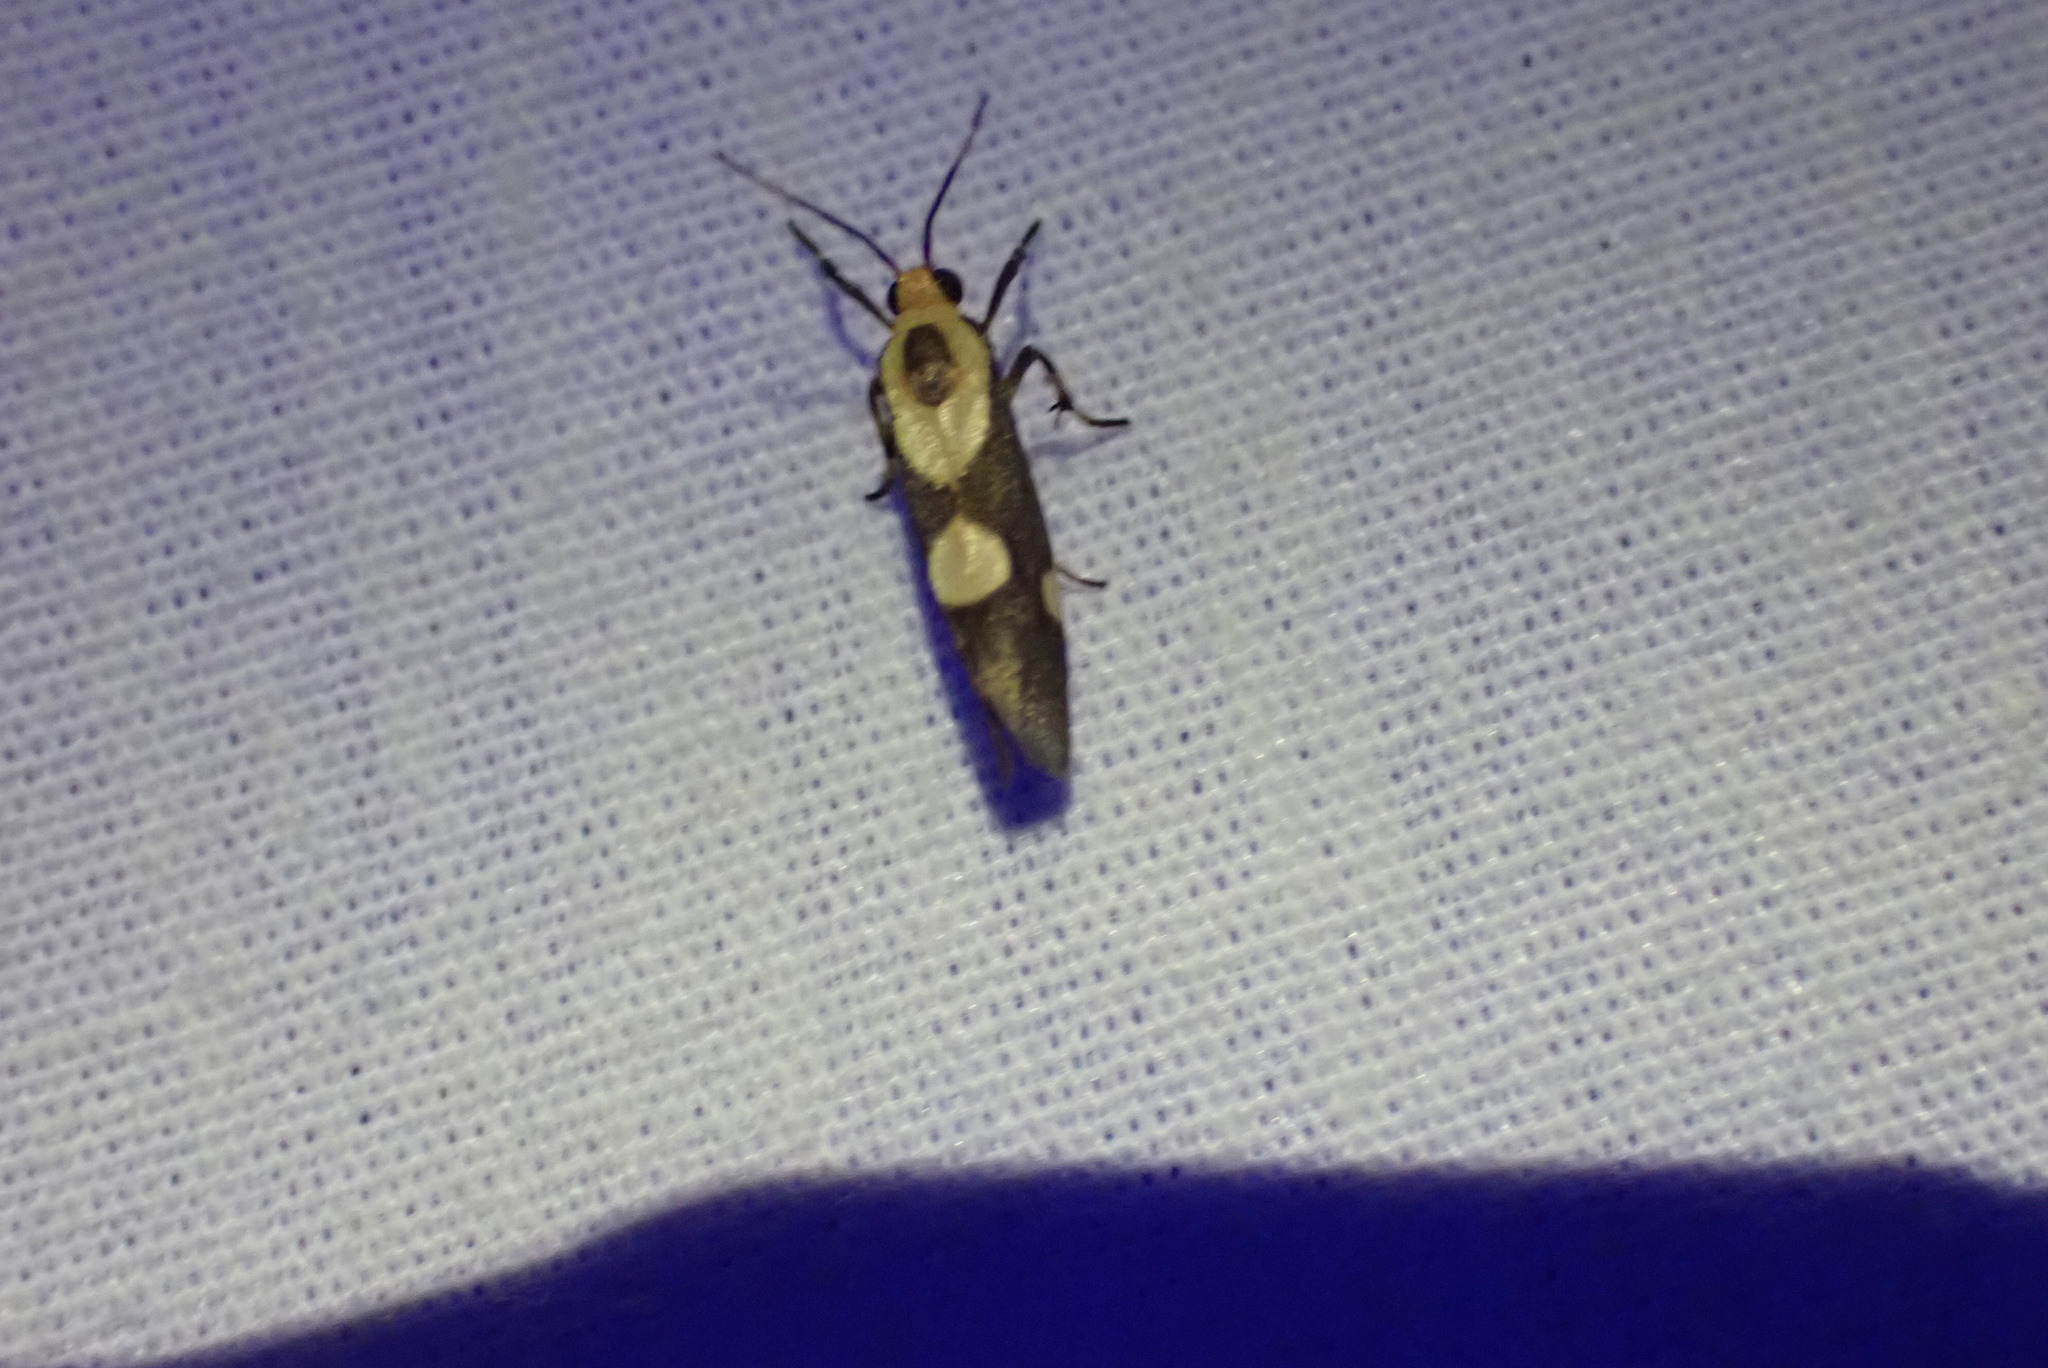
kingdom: Animalia
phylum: Arthropoda
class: Insecta
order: Lepidoptera
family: Erebidae
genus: Cisthene
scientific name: Cisthene polyzona
